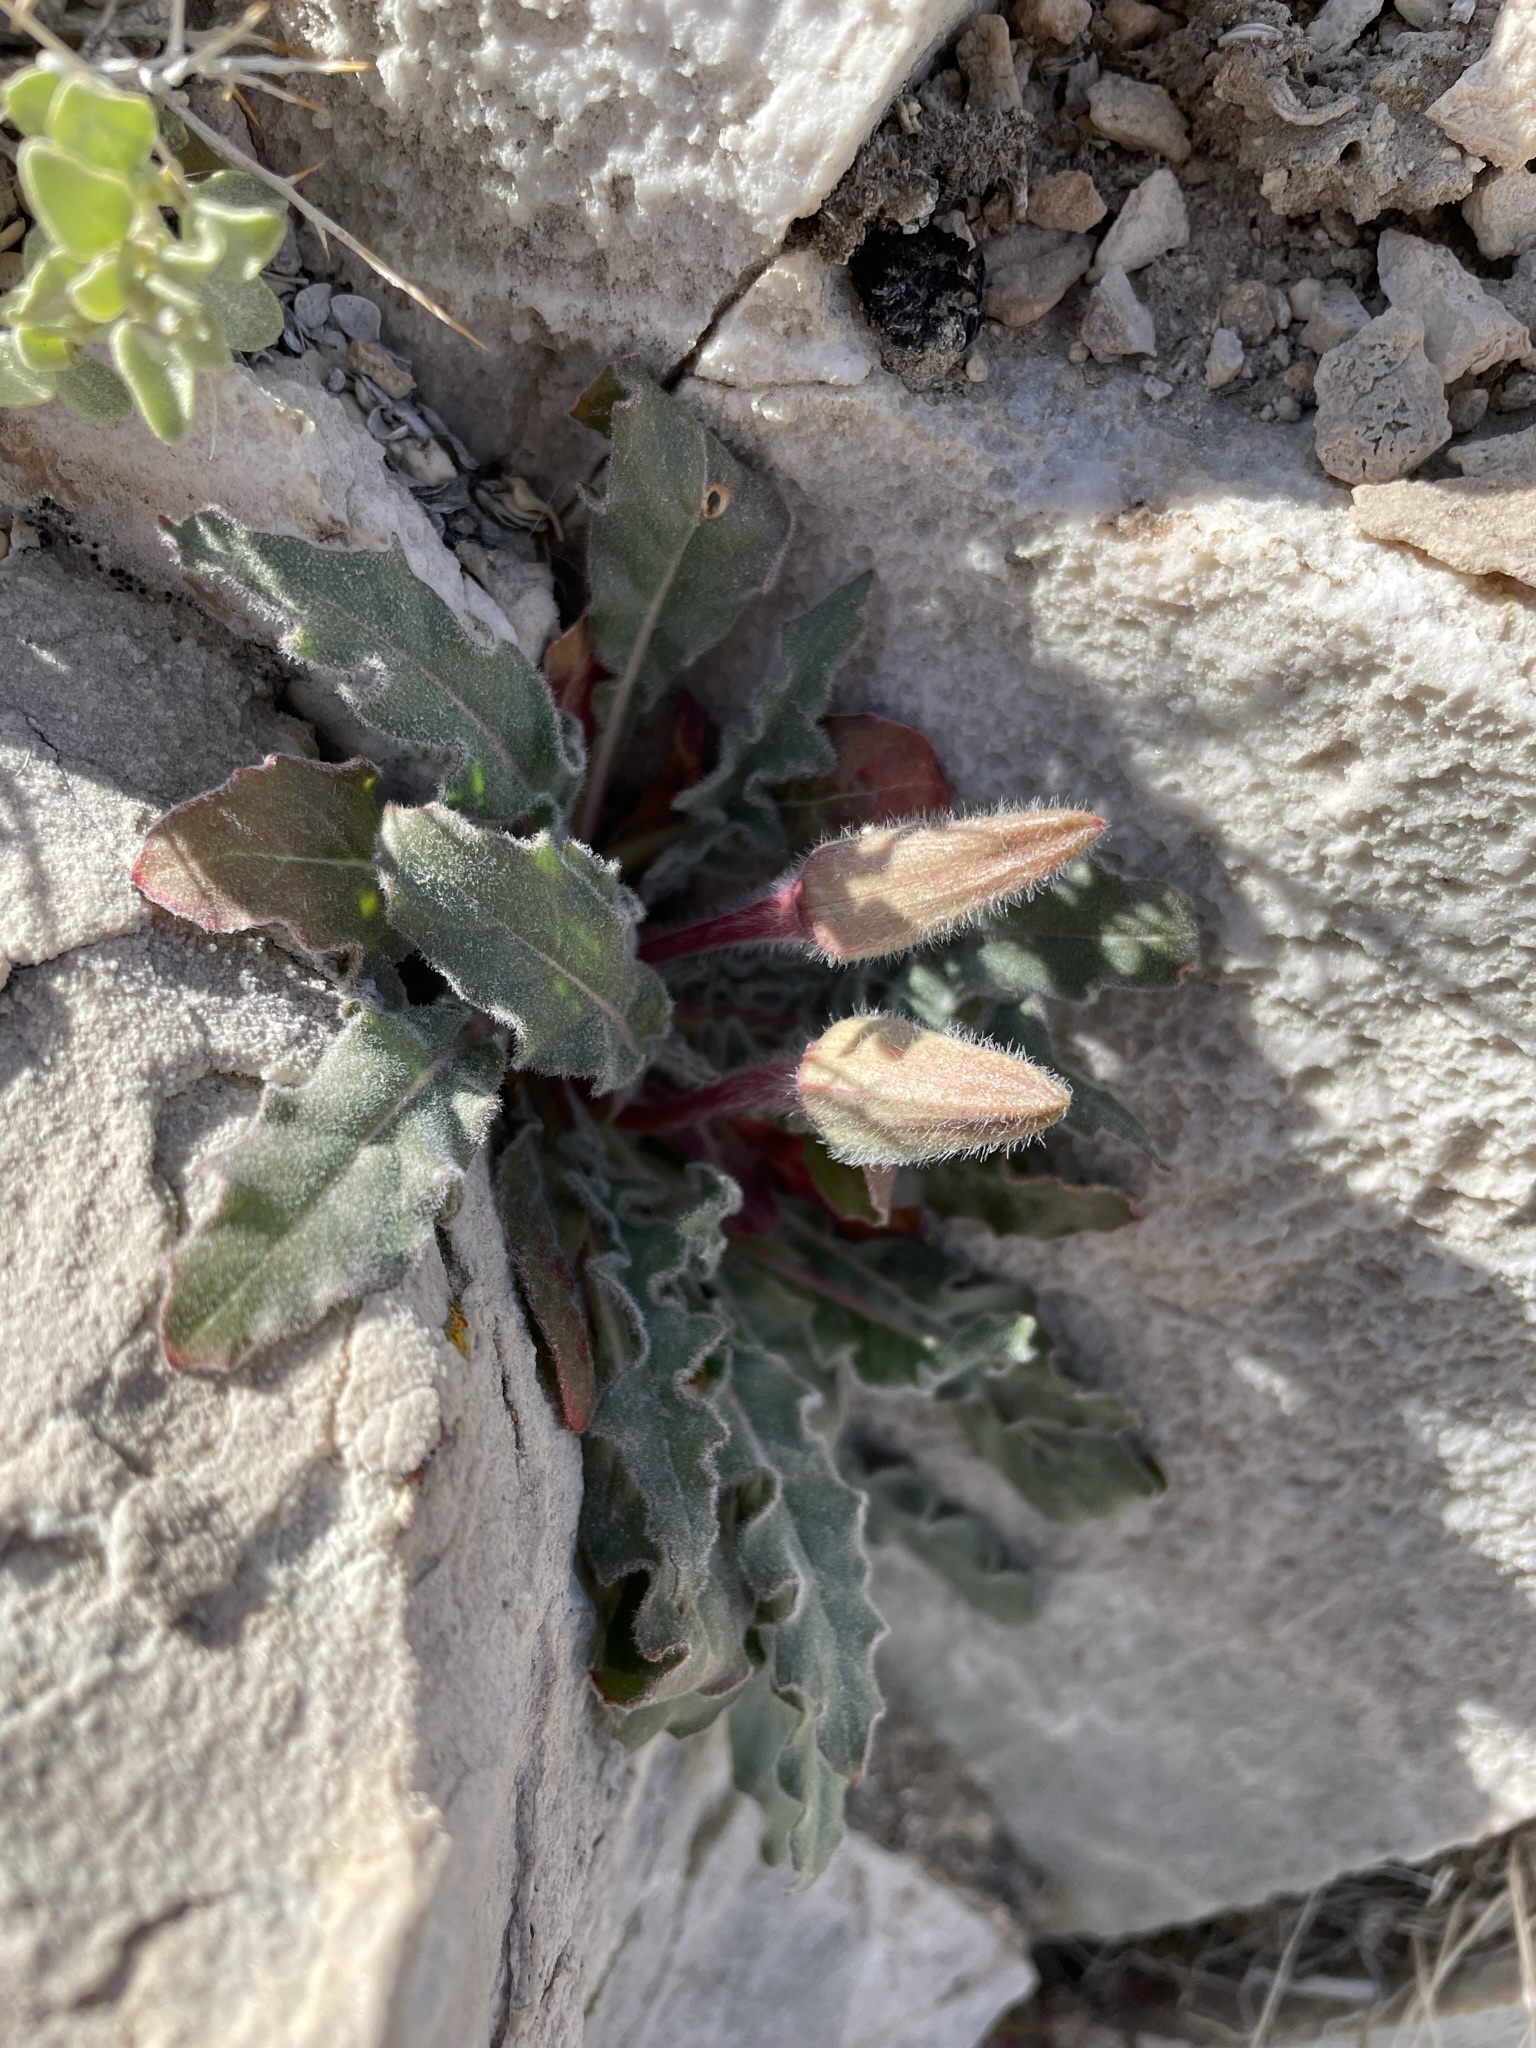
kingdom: Plantae
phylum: Tracheophyta
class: Magnoliopsida
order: Myrtales
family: Onagraceae
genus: Oenothera
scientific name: Oenothera cespitosa
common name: Tufted evening-primrose
